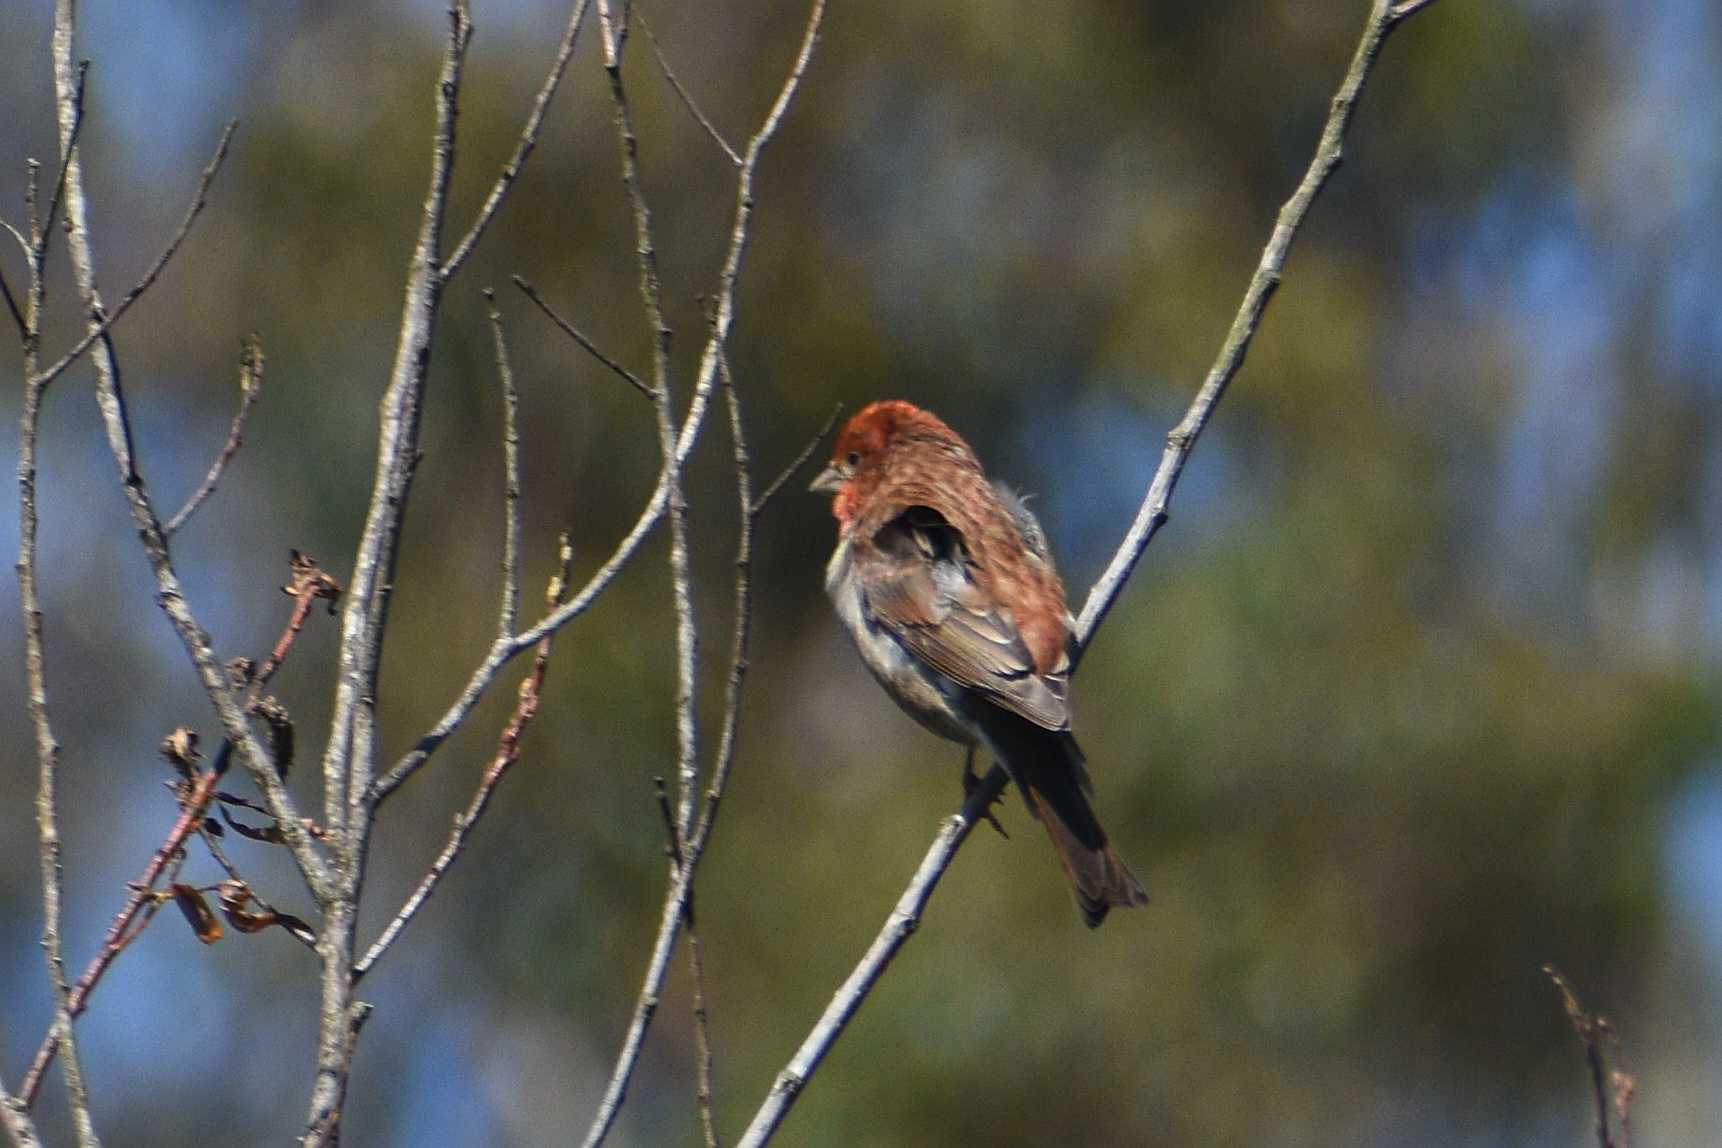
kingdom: Animalia
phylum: Chordata
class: Aves
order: Passeriformes
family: Fringillidae
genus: Haemorhous
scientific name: Haemorhous purpureus
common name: Purple finch
